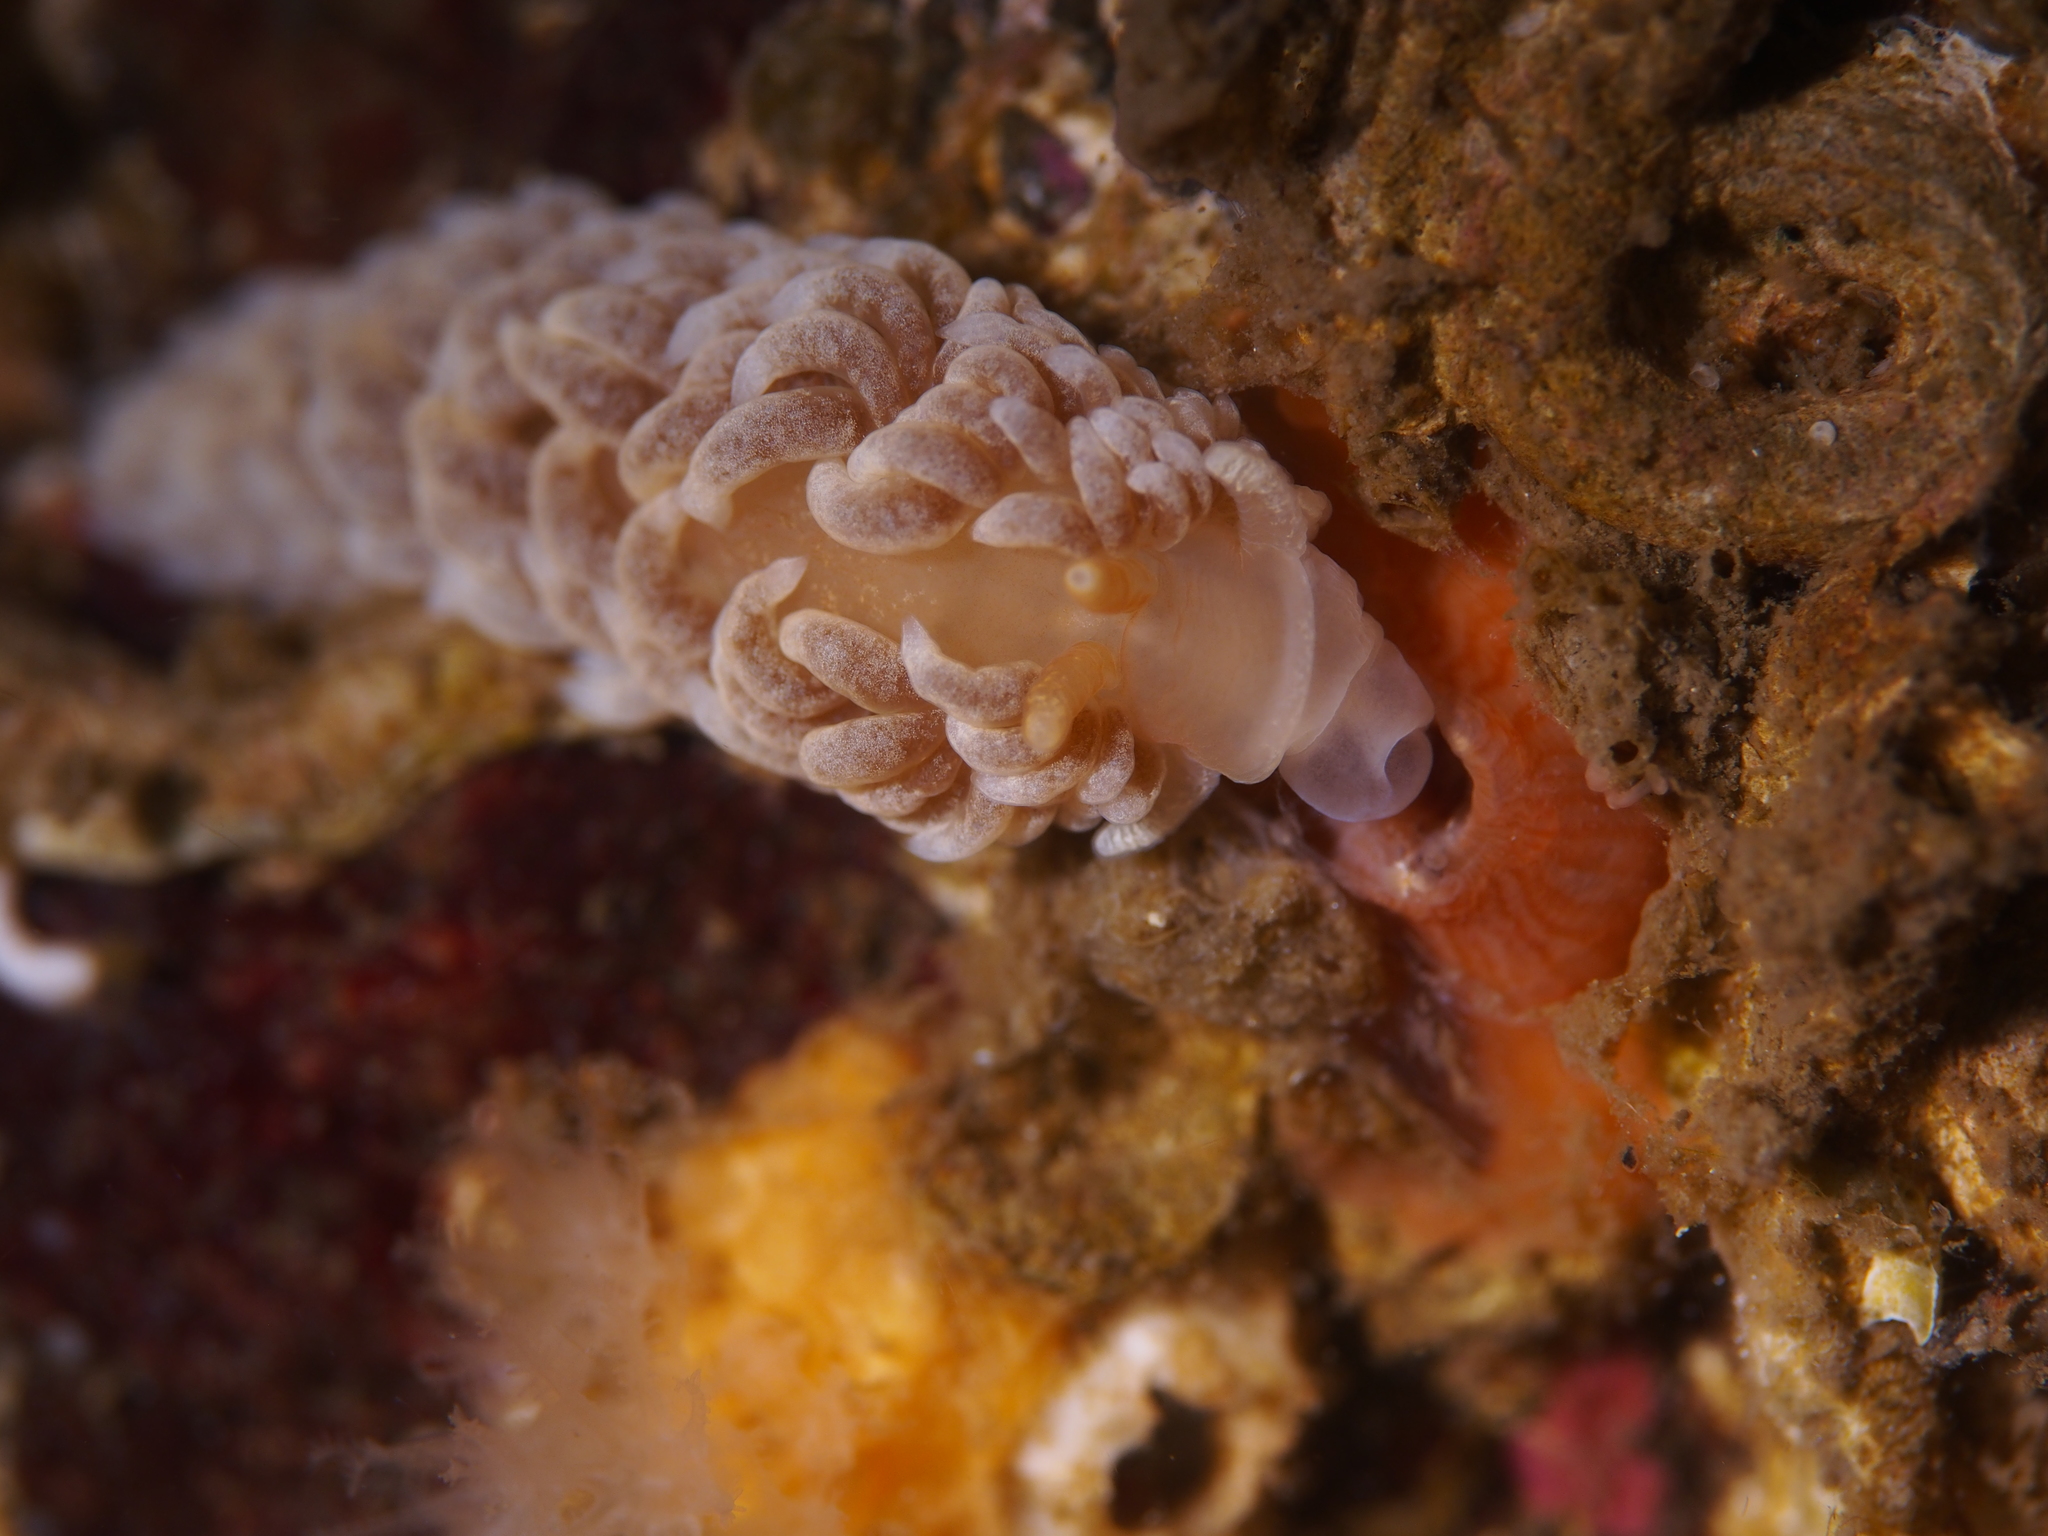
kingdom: Animalia
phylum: Mollusca
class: Gastropoda
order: Nudibranchia
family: Aeolidiidae
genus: Aeolidiella
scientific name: Aeolidiella glauca
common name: Orange-brown aeolid
